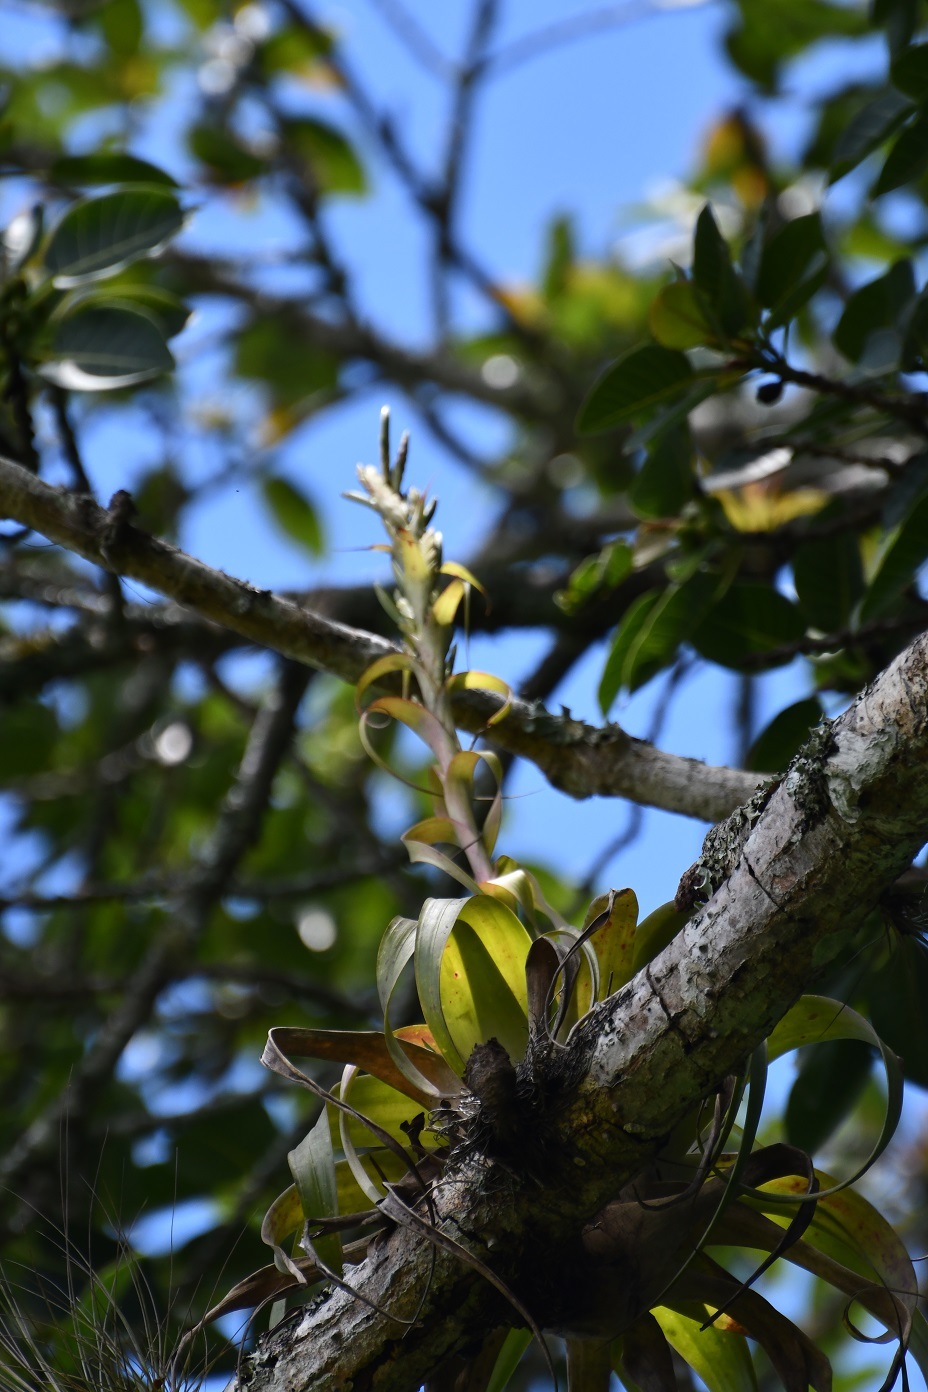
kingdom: Plantae
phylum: Tracheophyta
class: Liliopsida
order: Poales
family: Bromeliaceae
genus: Tillandsia
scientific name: Tillandsia belloensis
